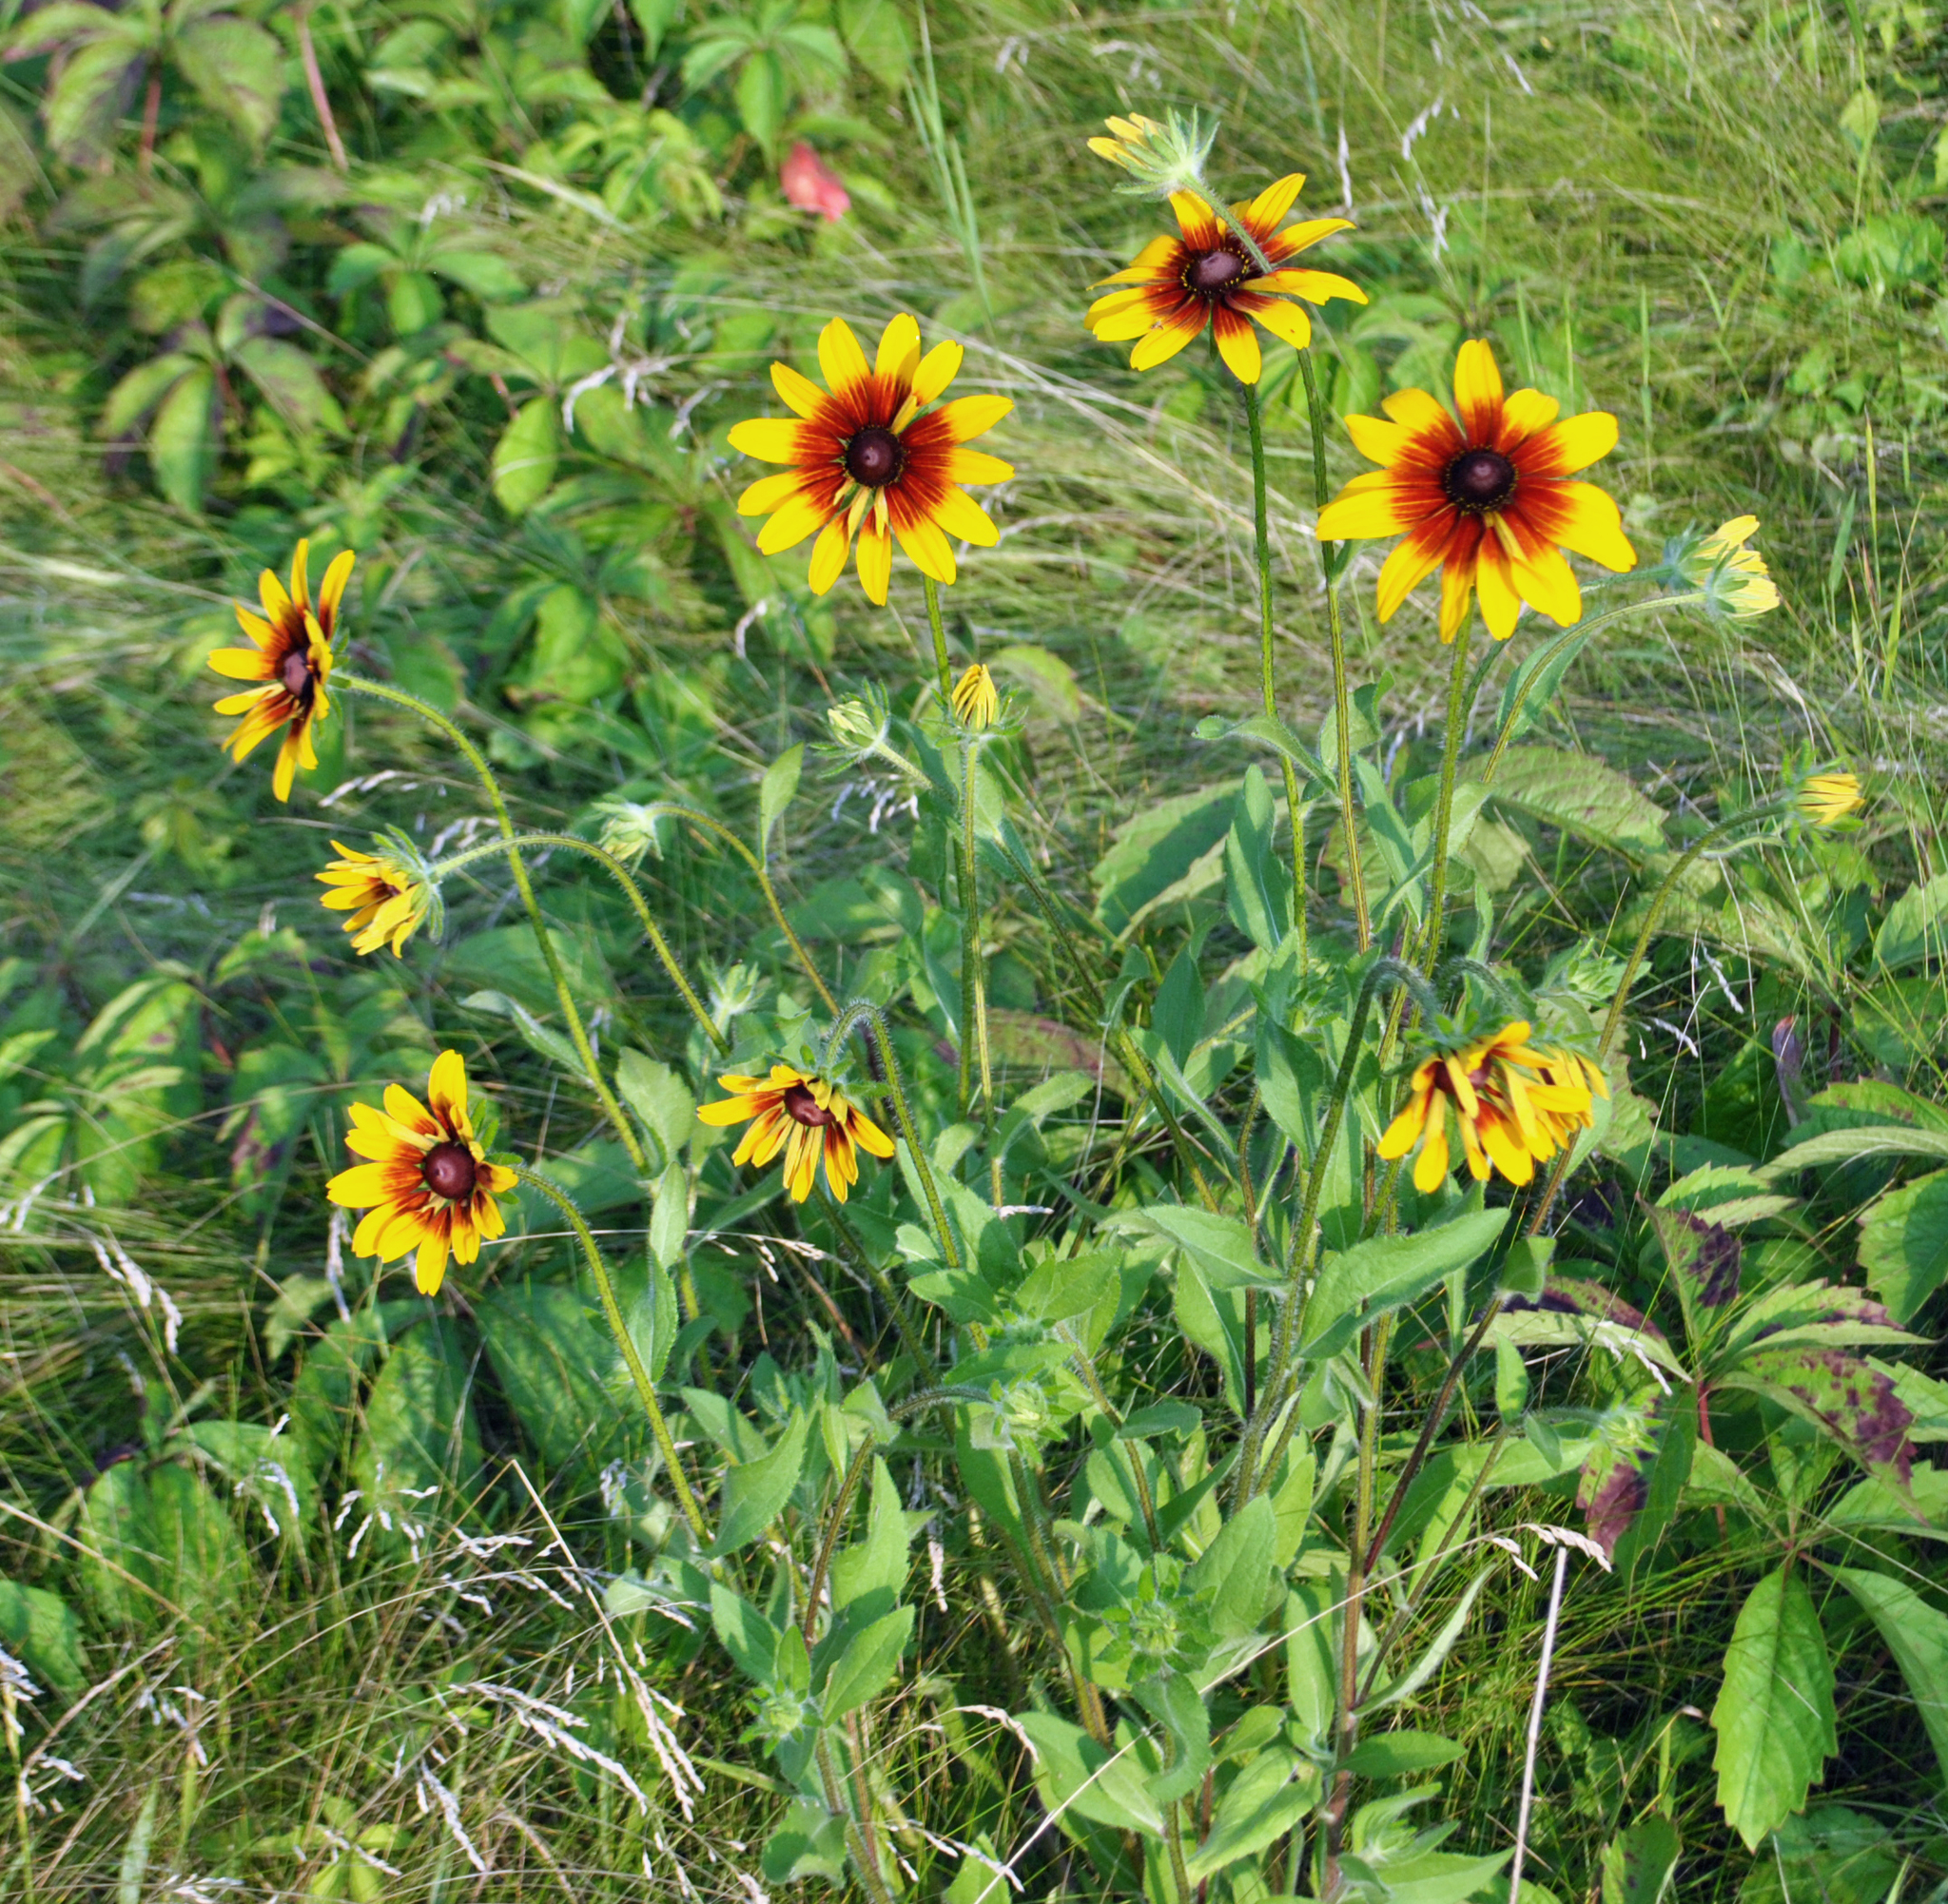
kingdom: Plantae
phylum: Tracheophyta
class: Magnoliopsida
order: Asterales
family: Asteraceae
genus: Rudbeckia
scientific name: Rudbeckia hirta
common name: Black-eyed-susan
